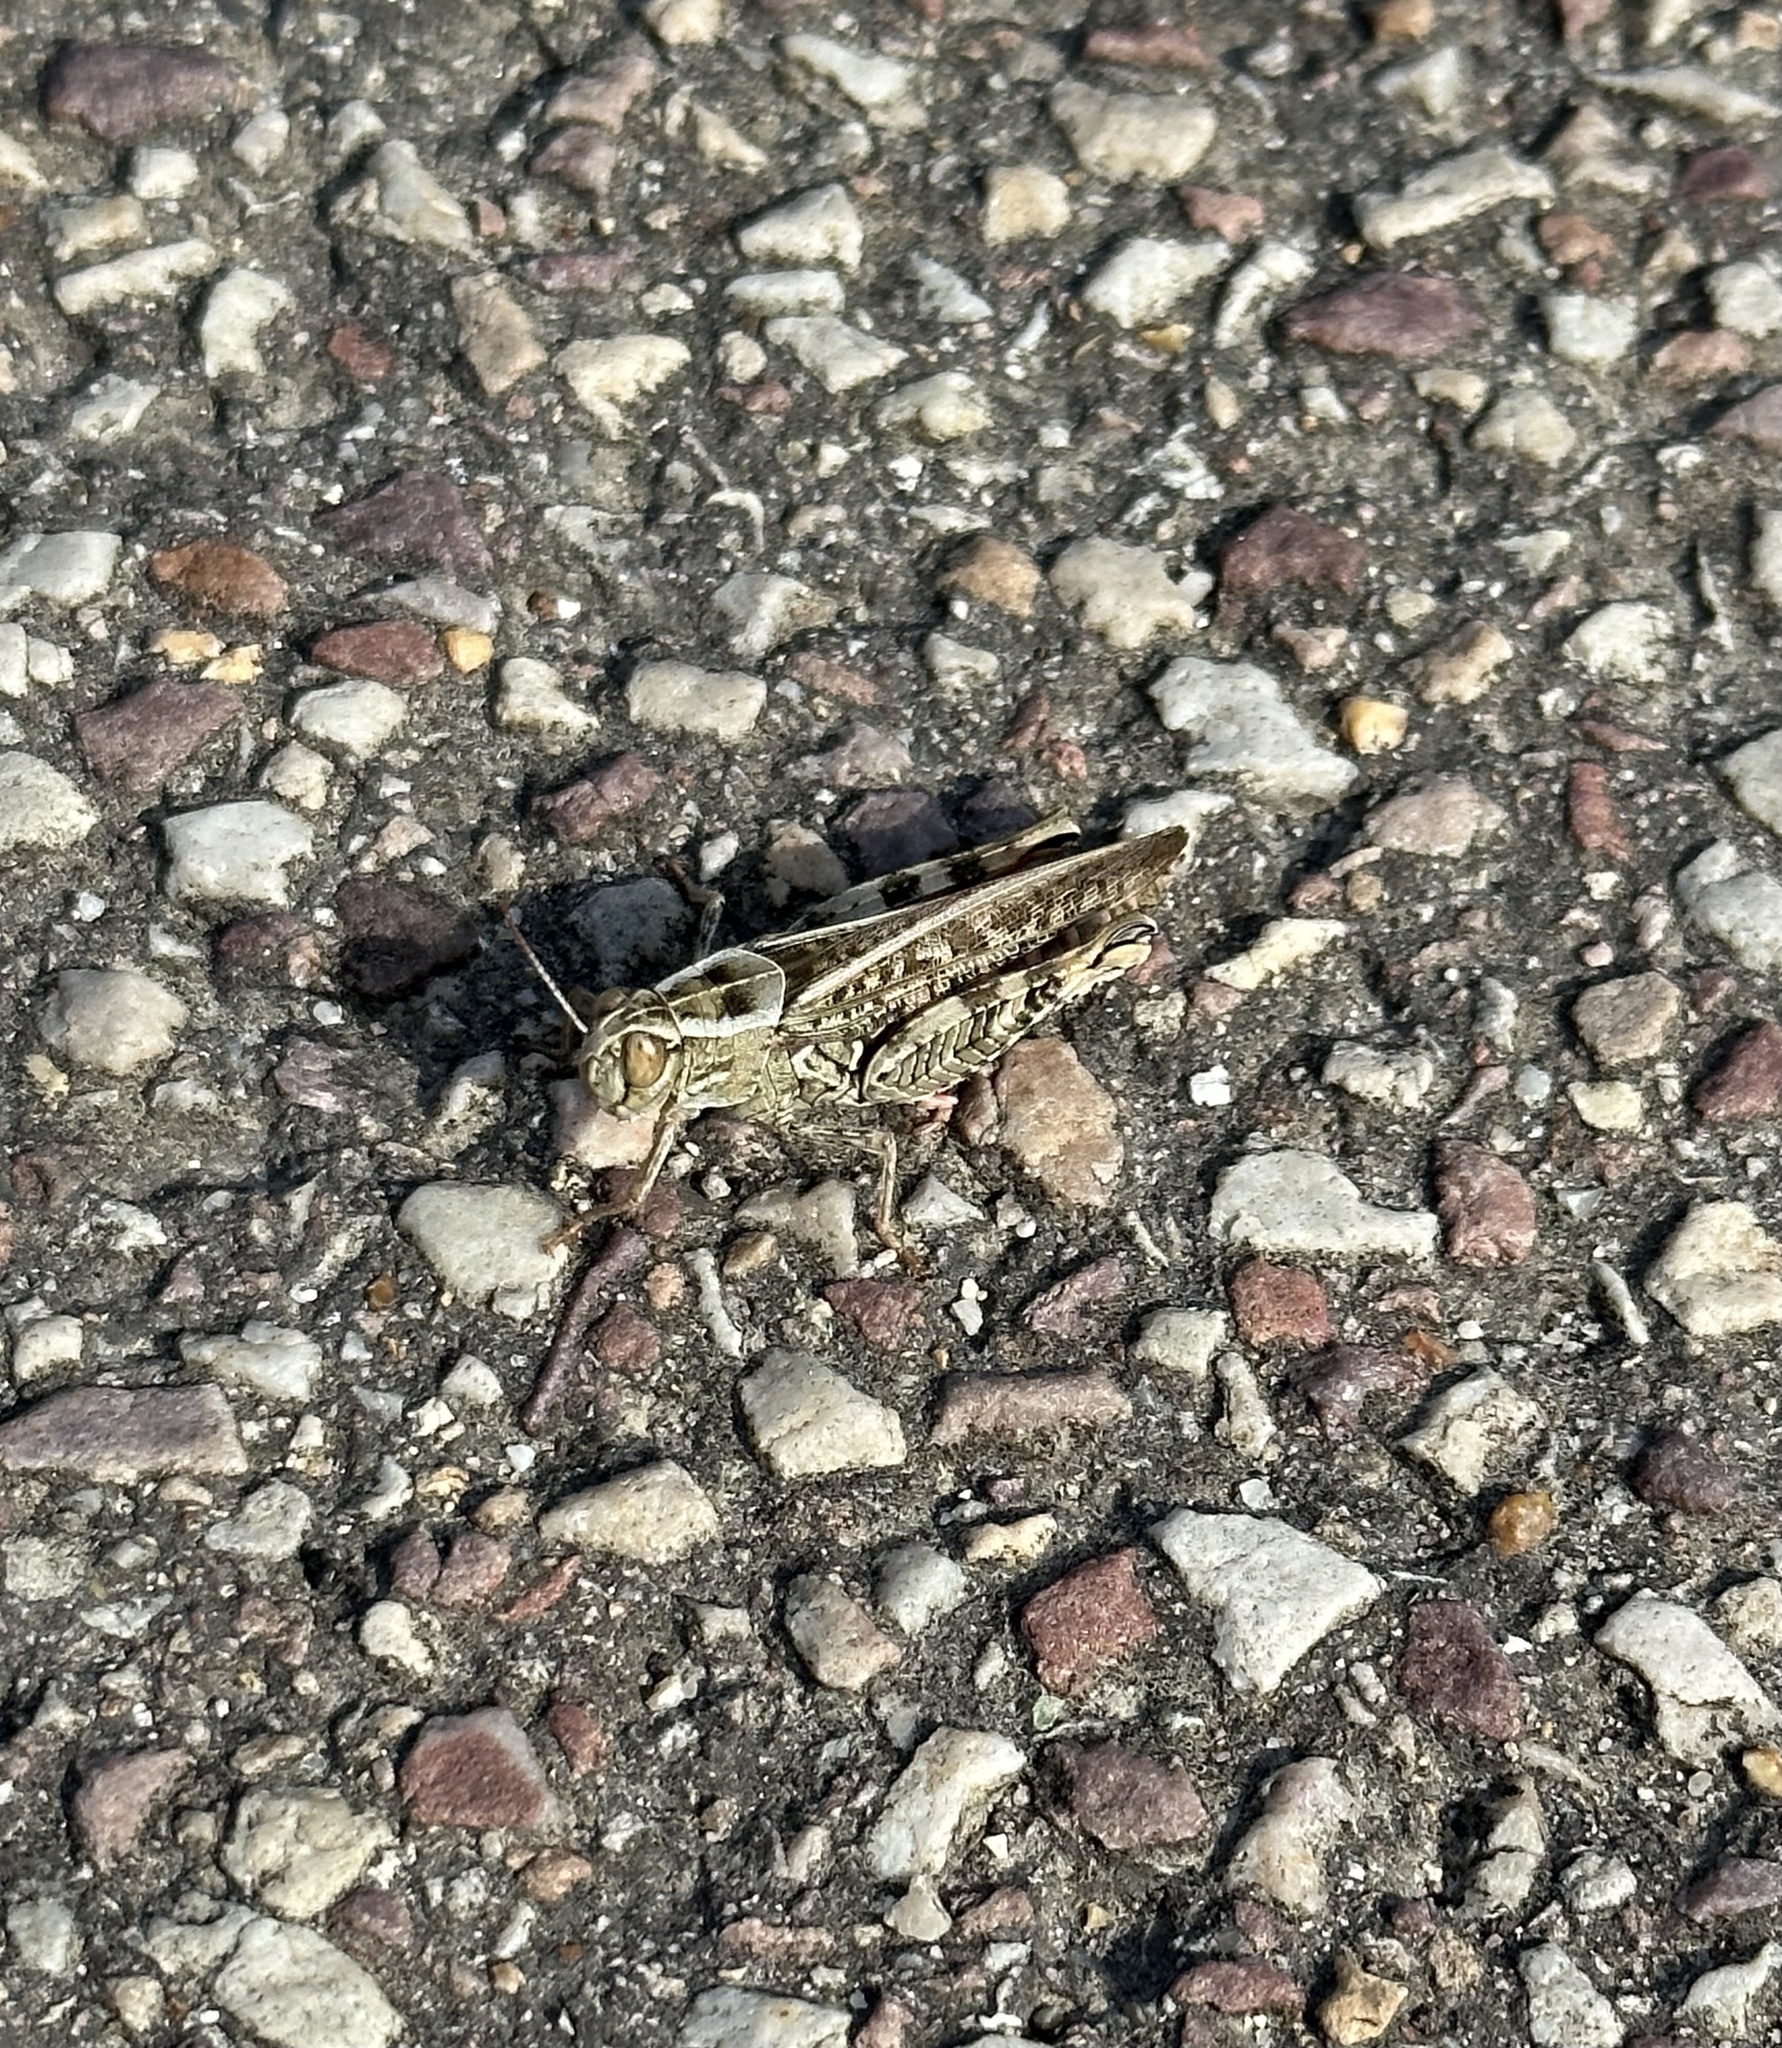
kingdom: Animalia
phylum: Arthropoda
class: Insecta
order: Orthoptera
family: Acrididae
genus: Calliptamus
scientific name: Calliptamus italicus
